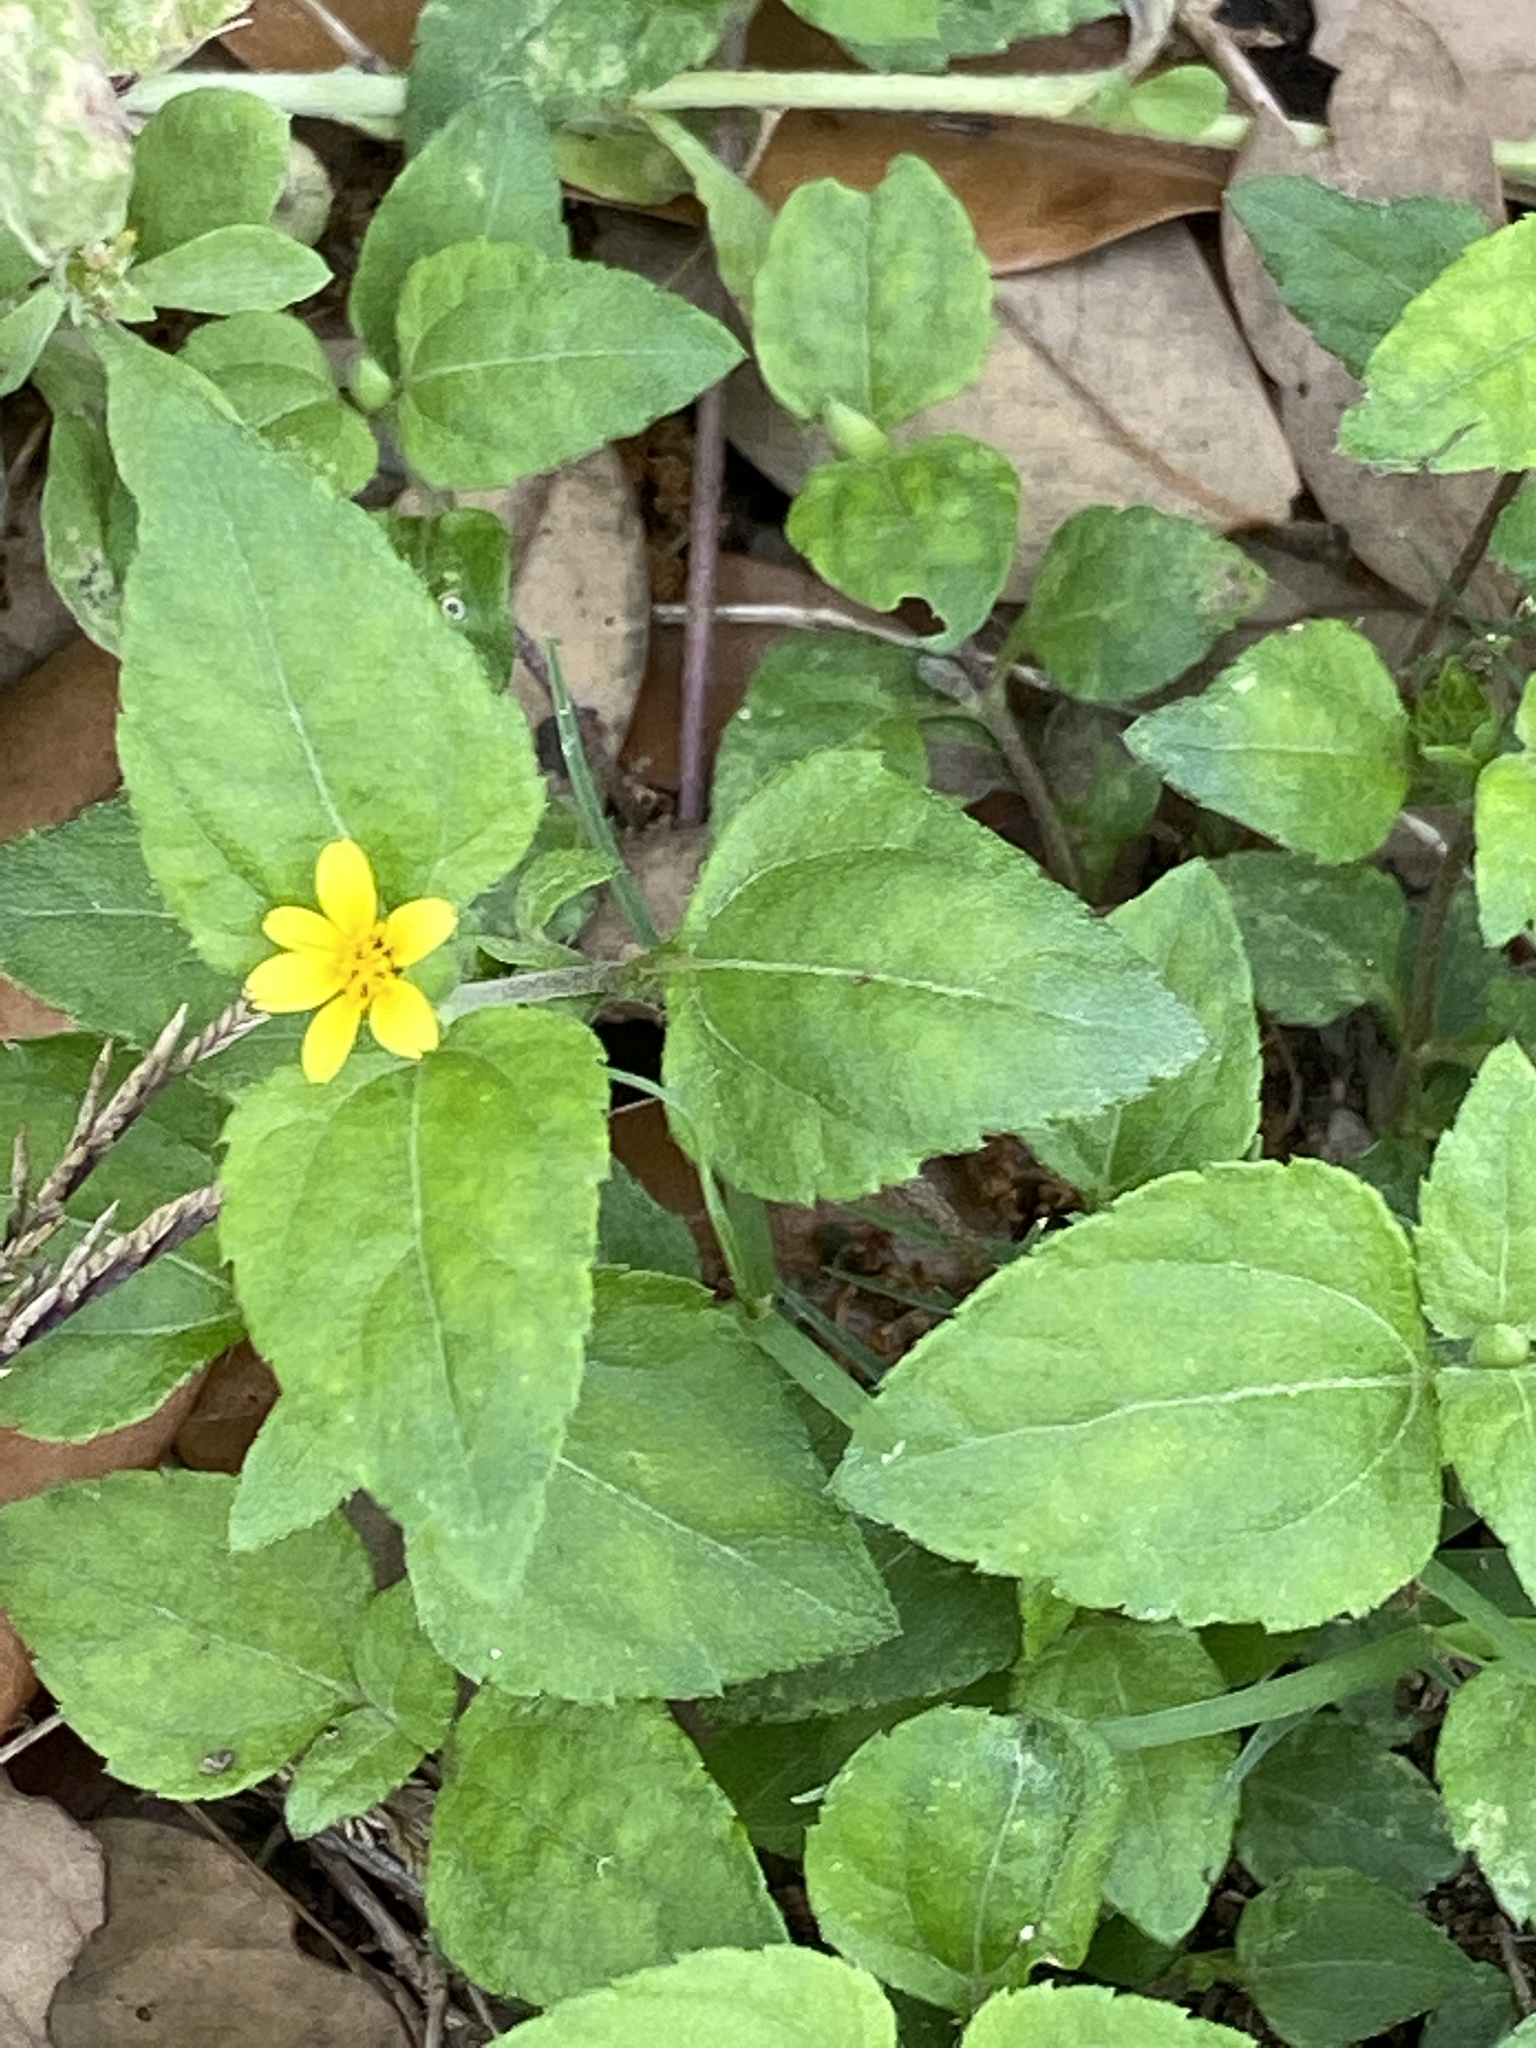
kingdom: Plantae
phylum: Tracheophyta
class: Magnoliopsida
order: Asterales
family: Asteraceae
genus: Calyptocarpus
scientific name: Calyptocarpus vialis
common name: Straggler daisy
